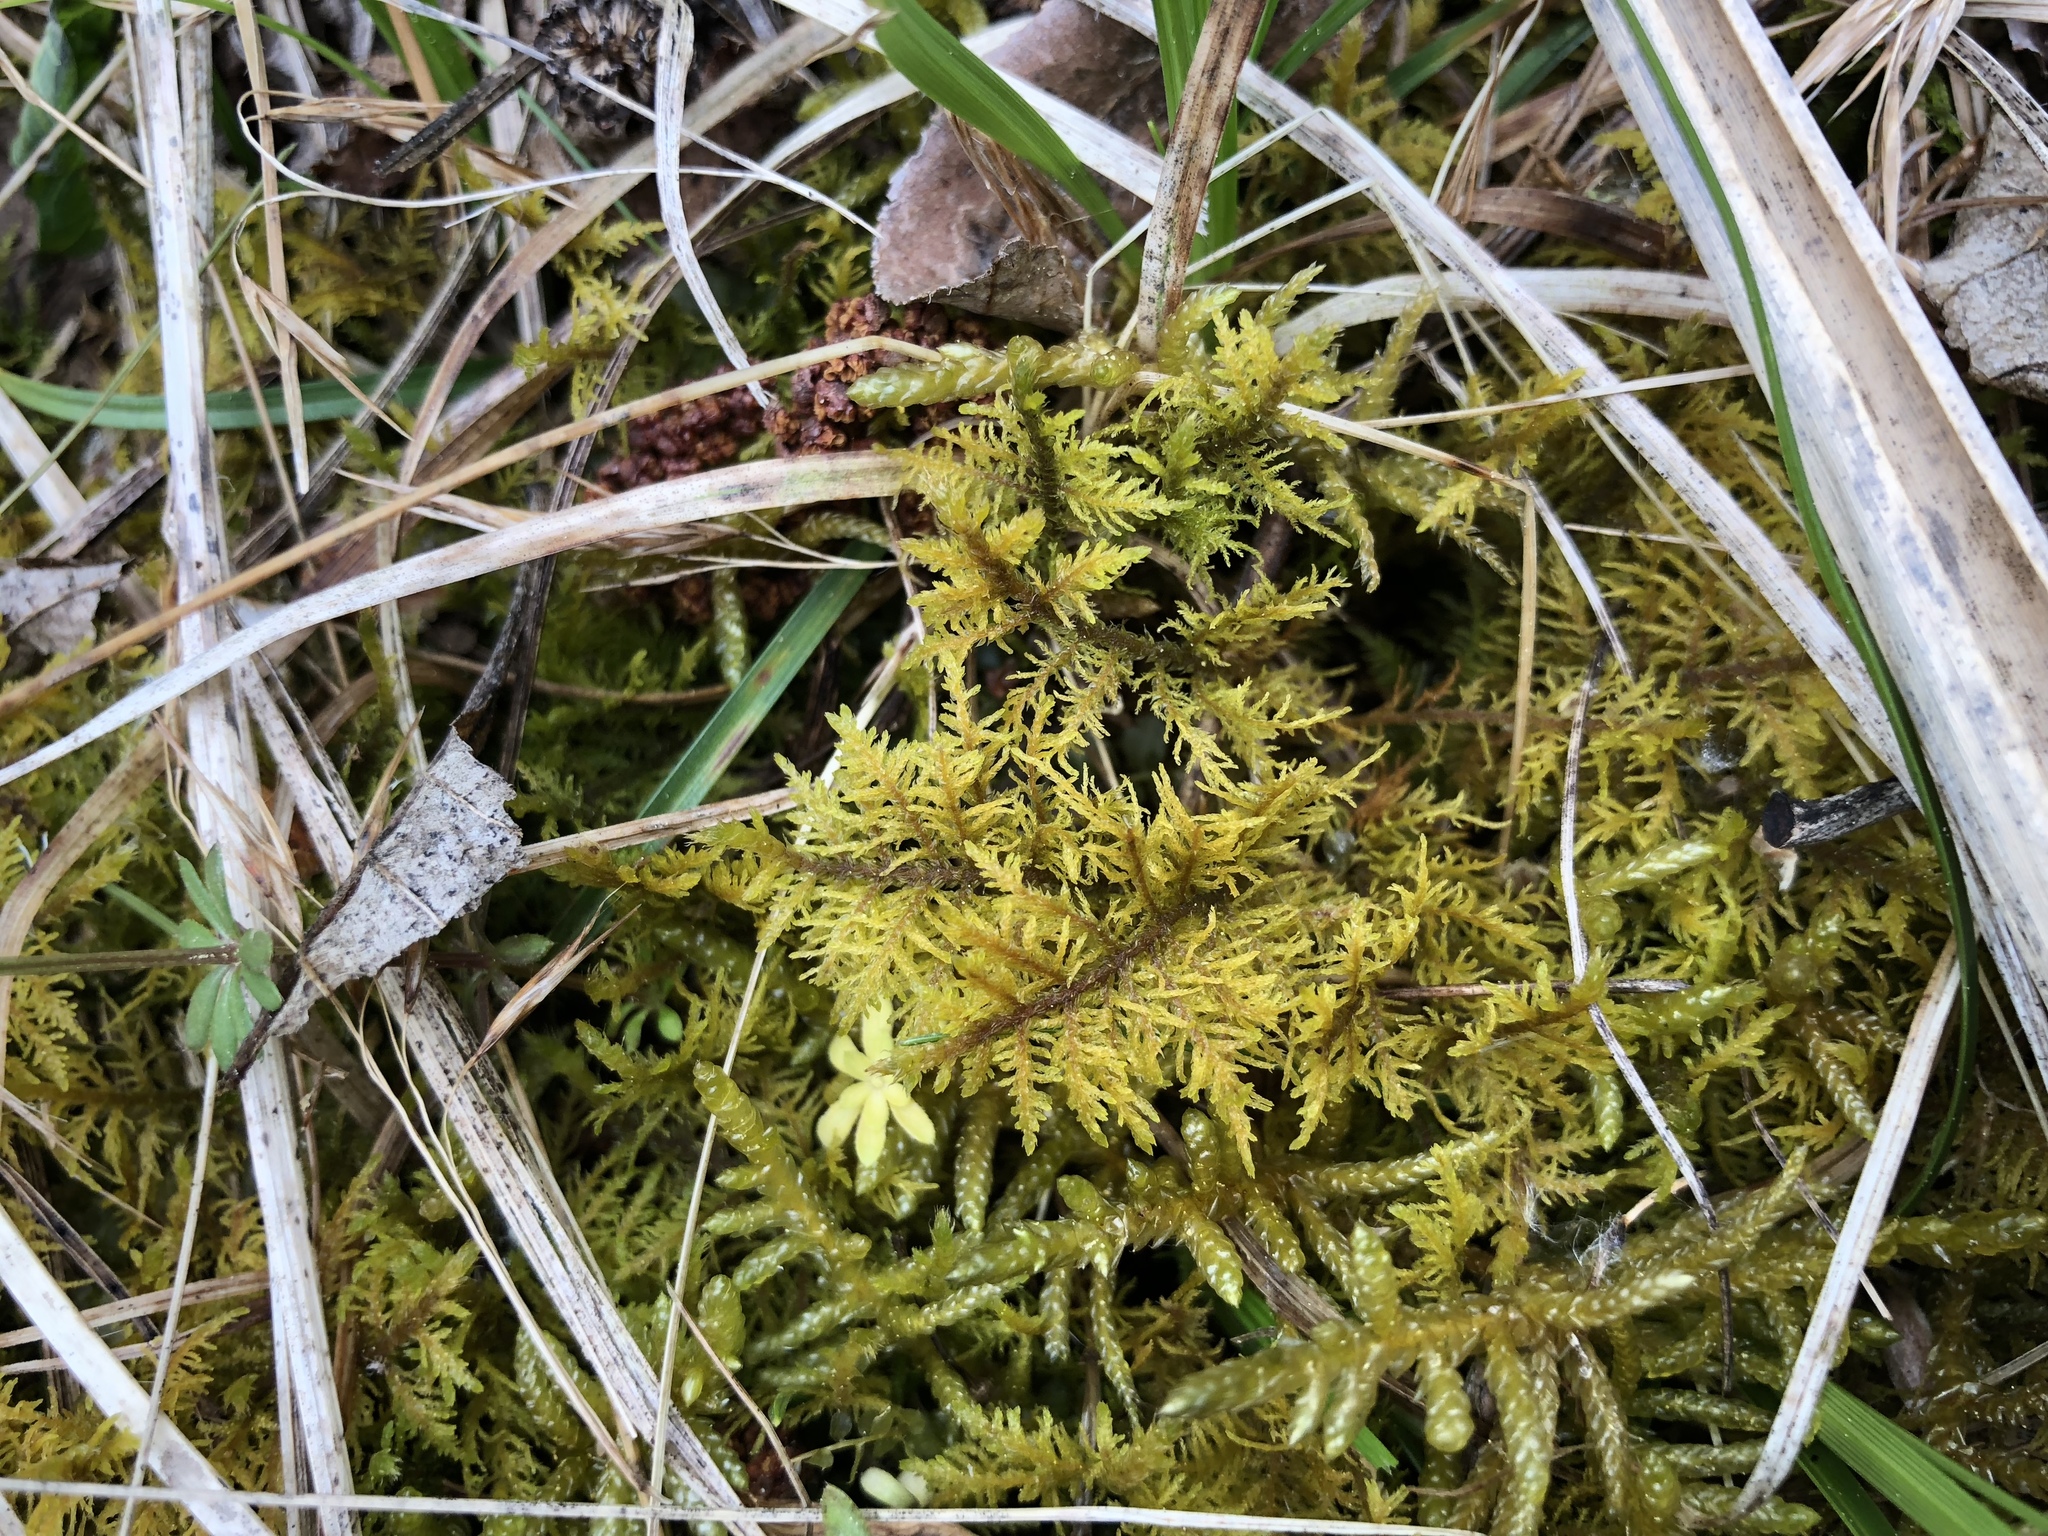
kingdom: Plantae
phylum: Bryophyta
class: Bryopsida
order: Hypnales
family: Hylocomiaceae
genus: Hylocomium
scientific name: Hylocomium splendens
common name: Stairstep moss
